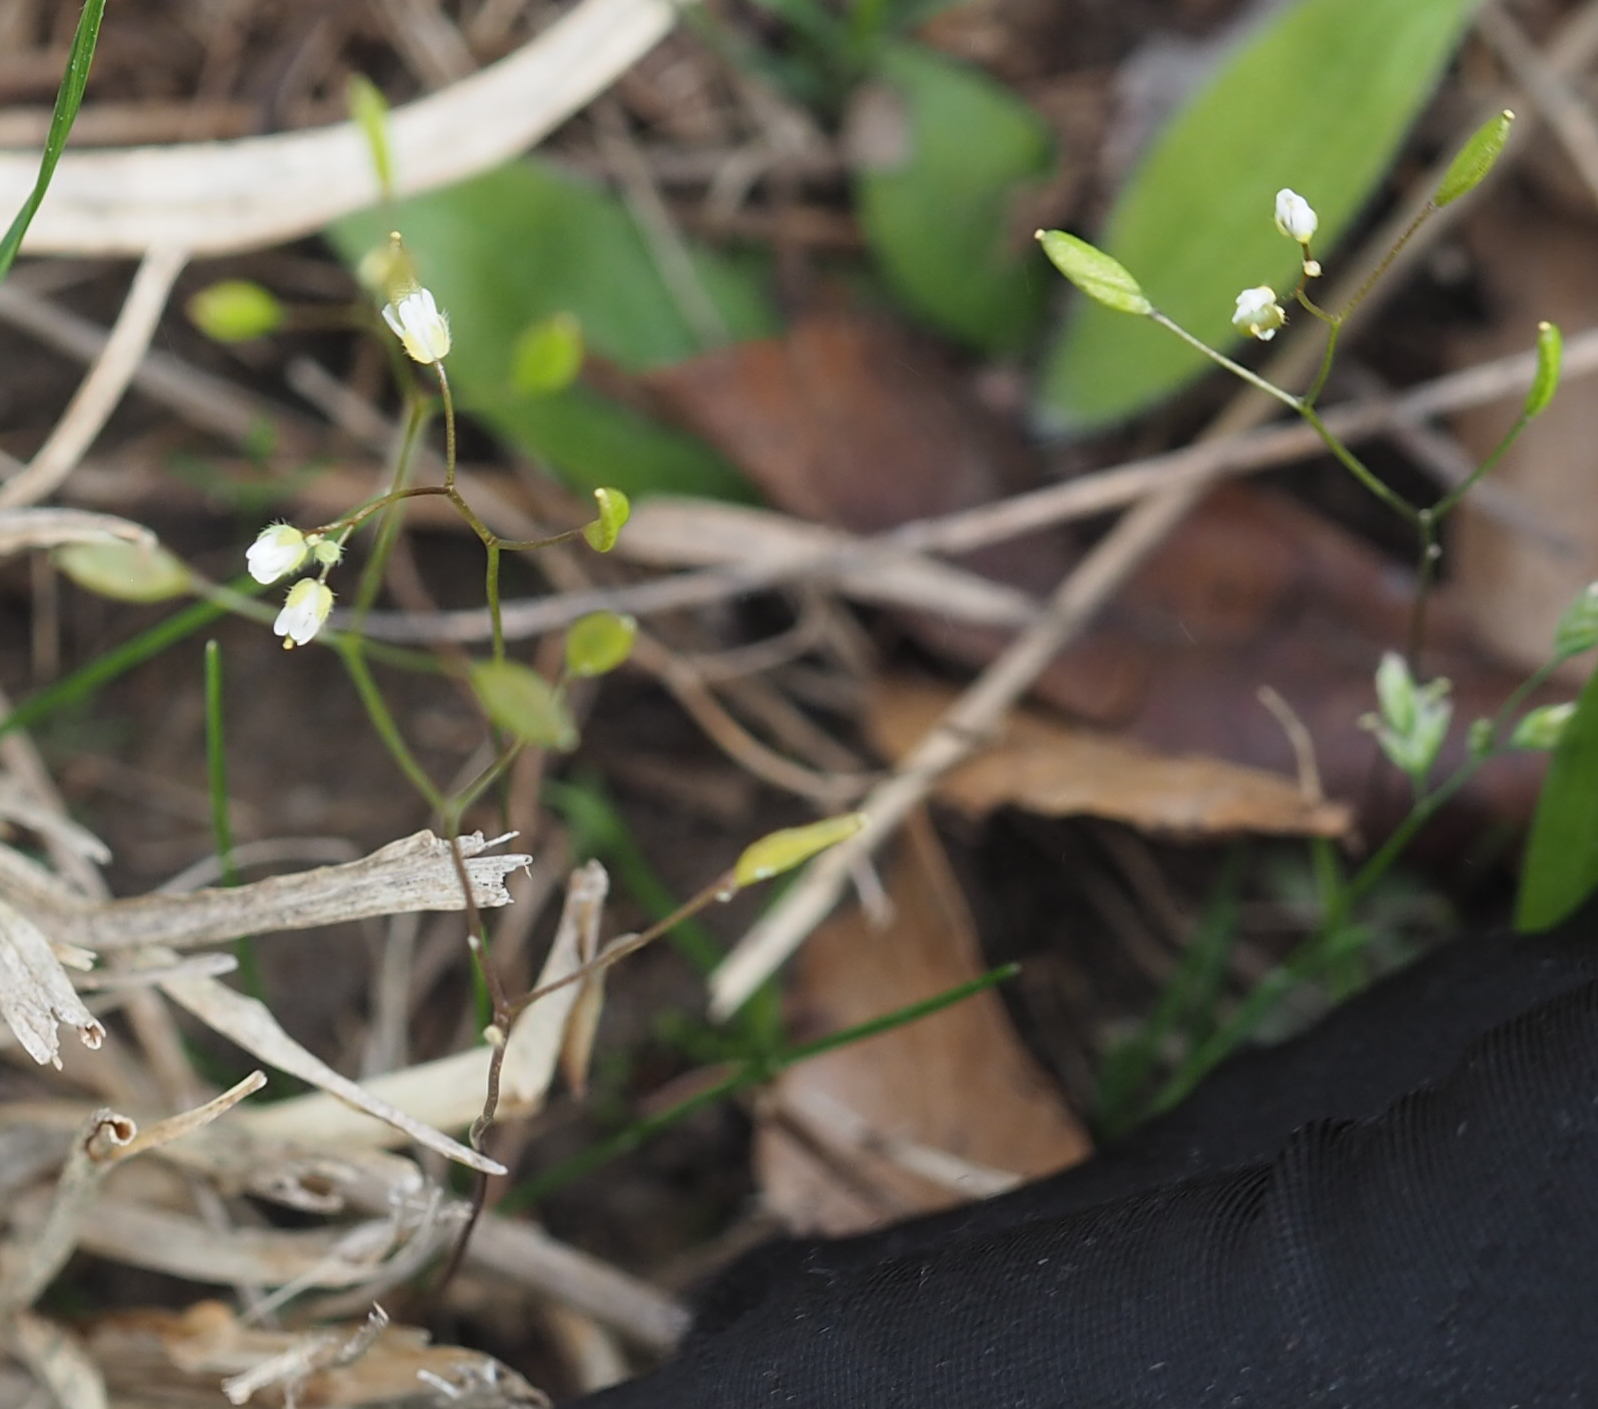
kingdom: Plantae
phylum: Tracheophyta
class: Magnoliopsida
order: Brassicales
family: Brassicaceae
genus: Draba
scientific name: Draba verna
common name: Spring draba
